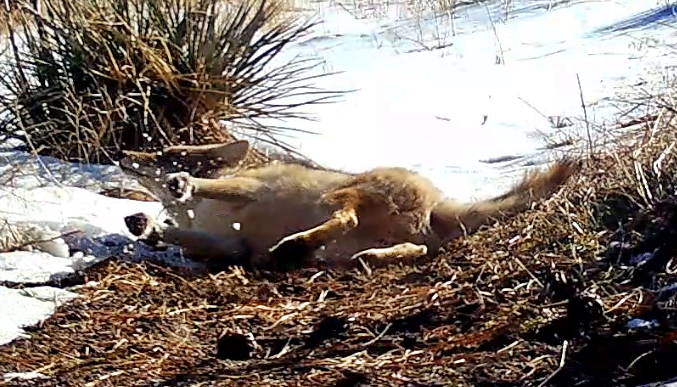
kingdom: Animalia
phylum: Chordata
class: Mammalia
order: Carnivora
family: Canidae
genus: Canis
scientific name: Canis latrans
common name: Coyote
